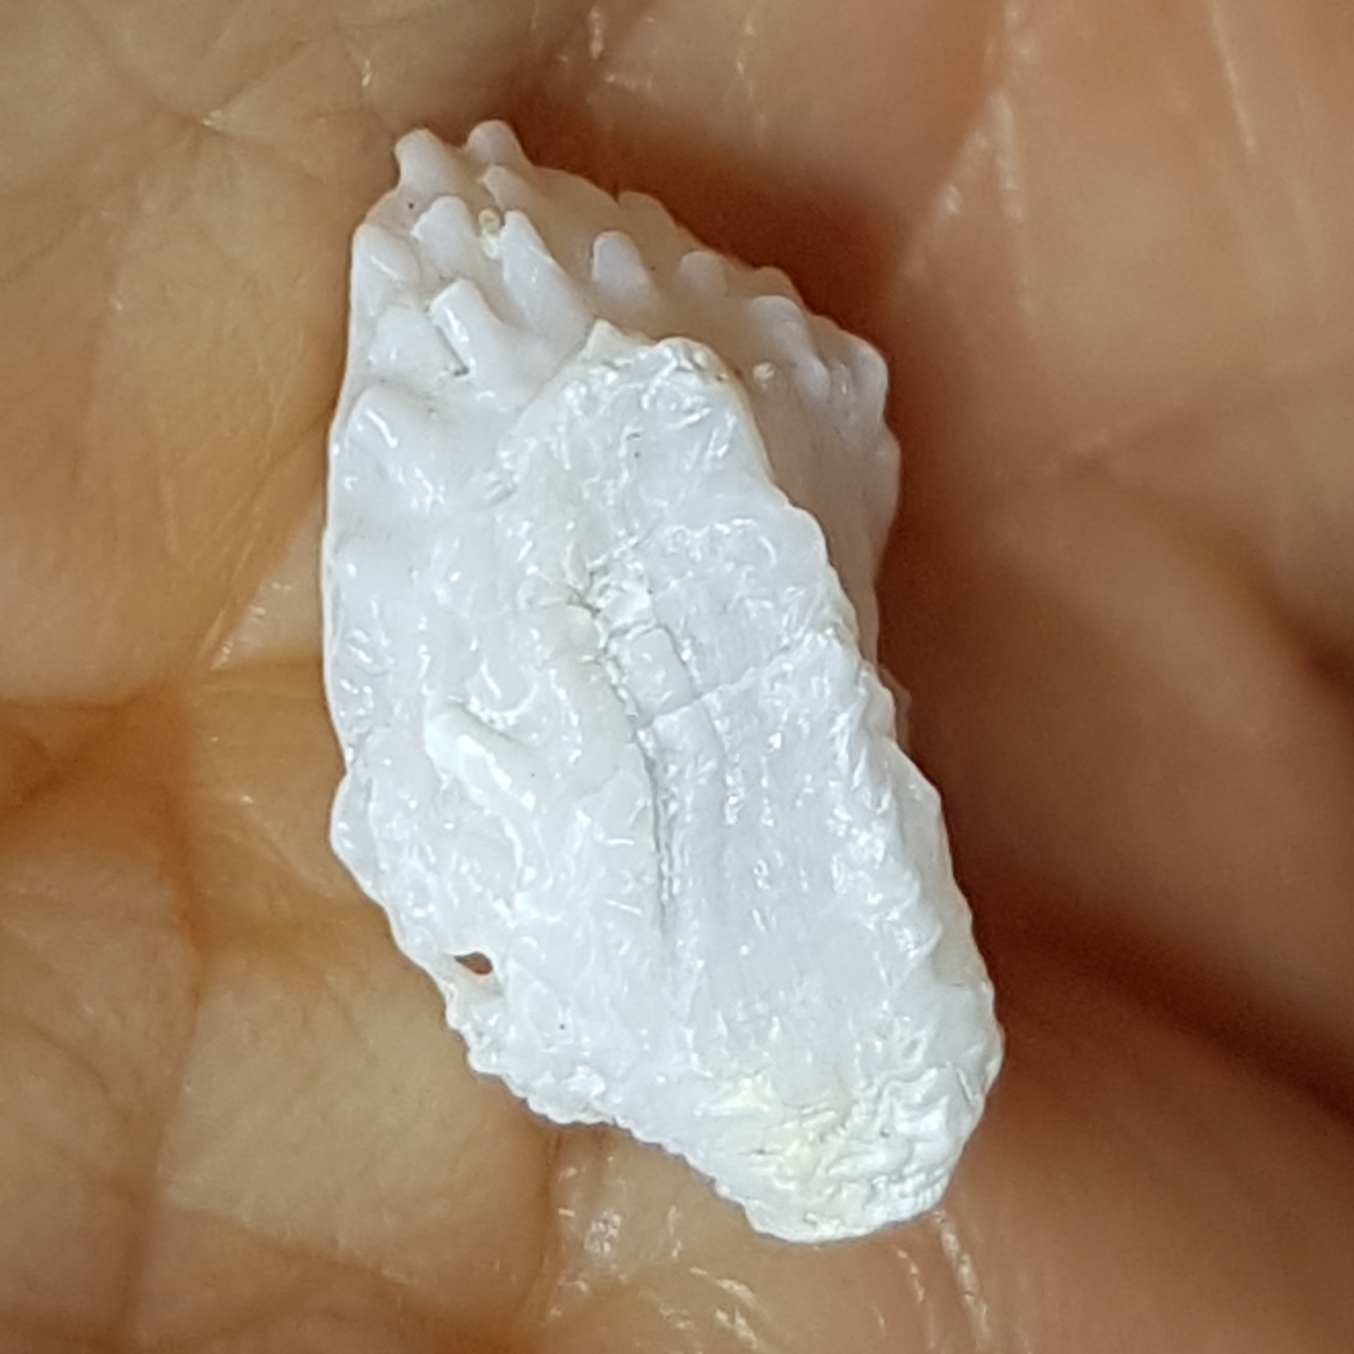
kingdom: Animalia
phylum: Mollusca
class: Bivalvia
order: Venerida
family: Chamidae
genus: Chama
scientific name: Chama gryphoides
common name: Common jewel box
